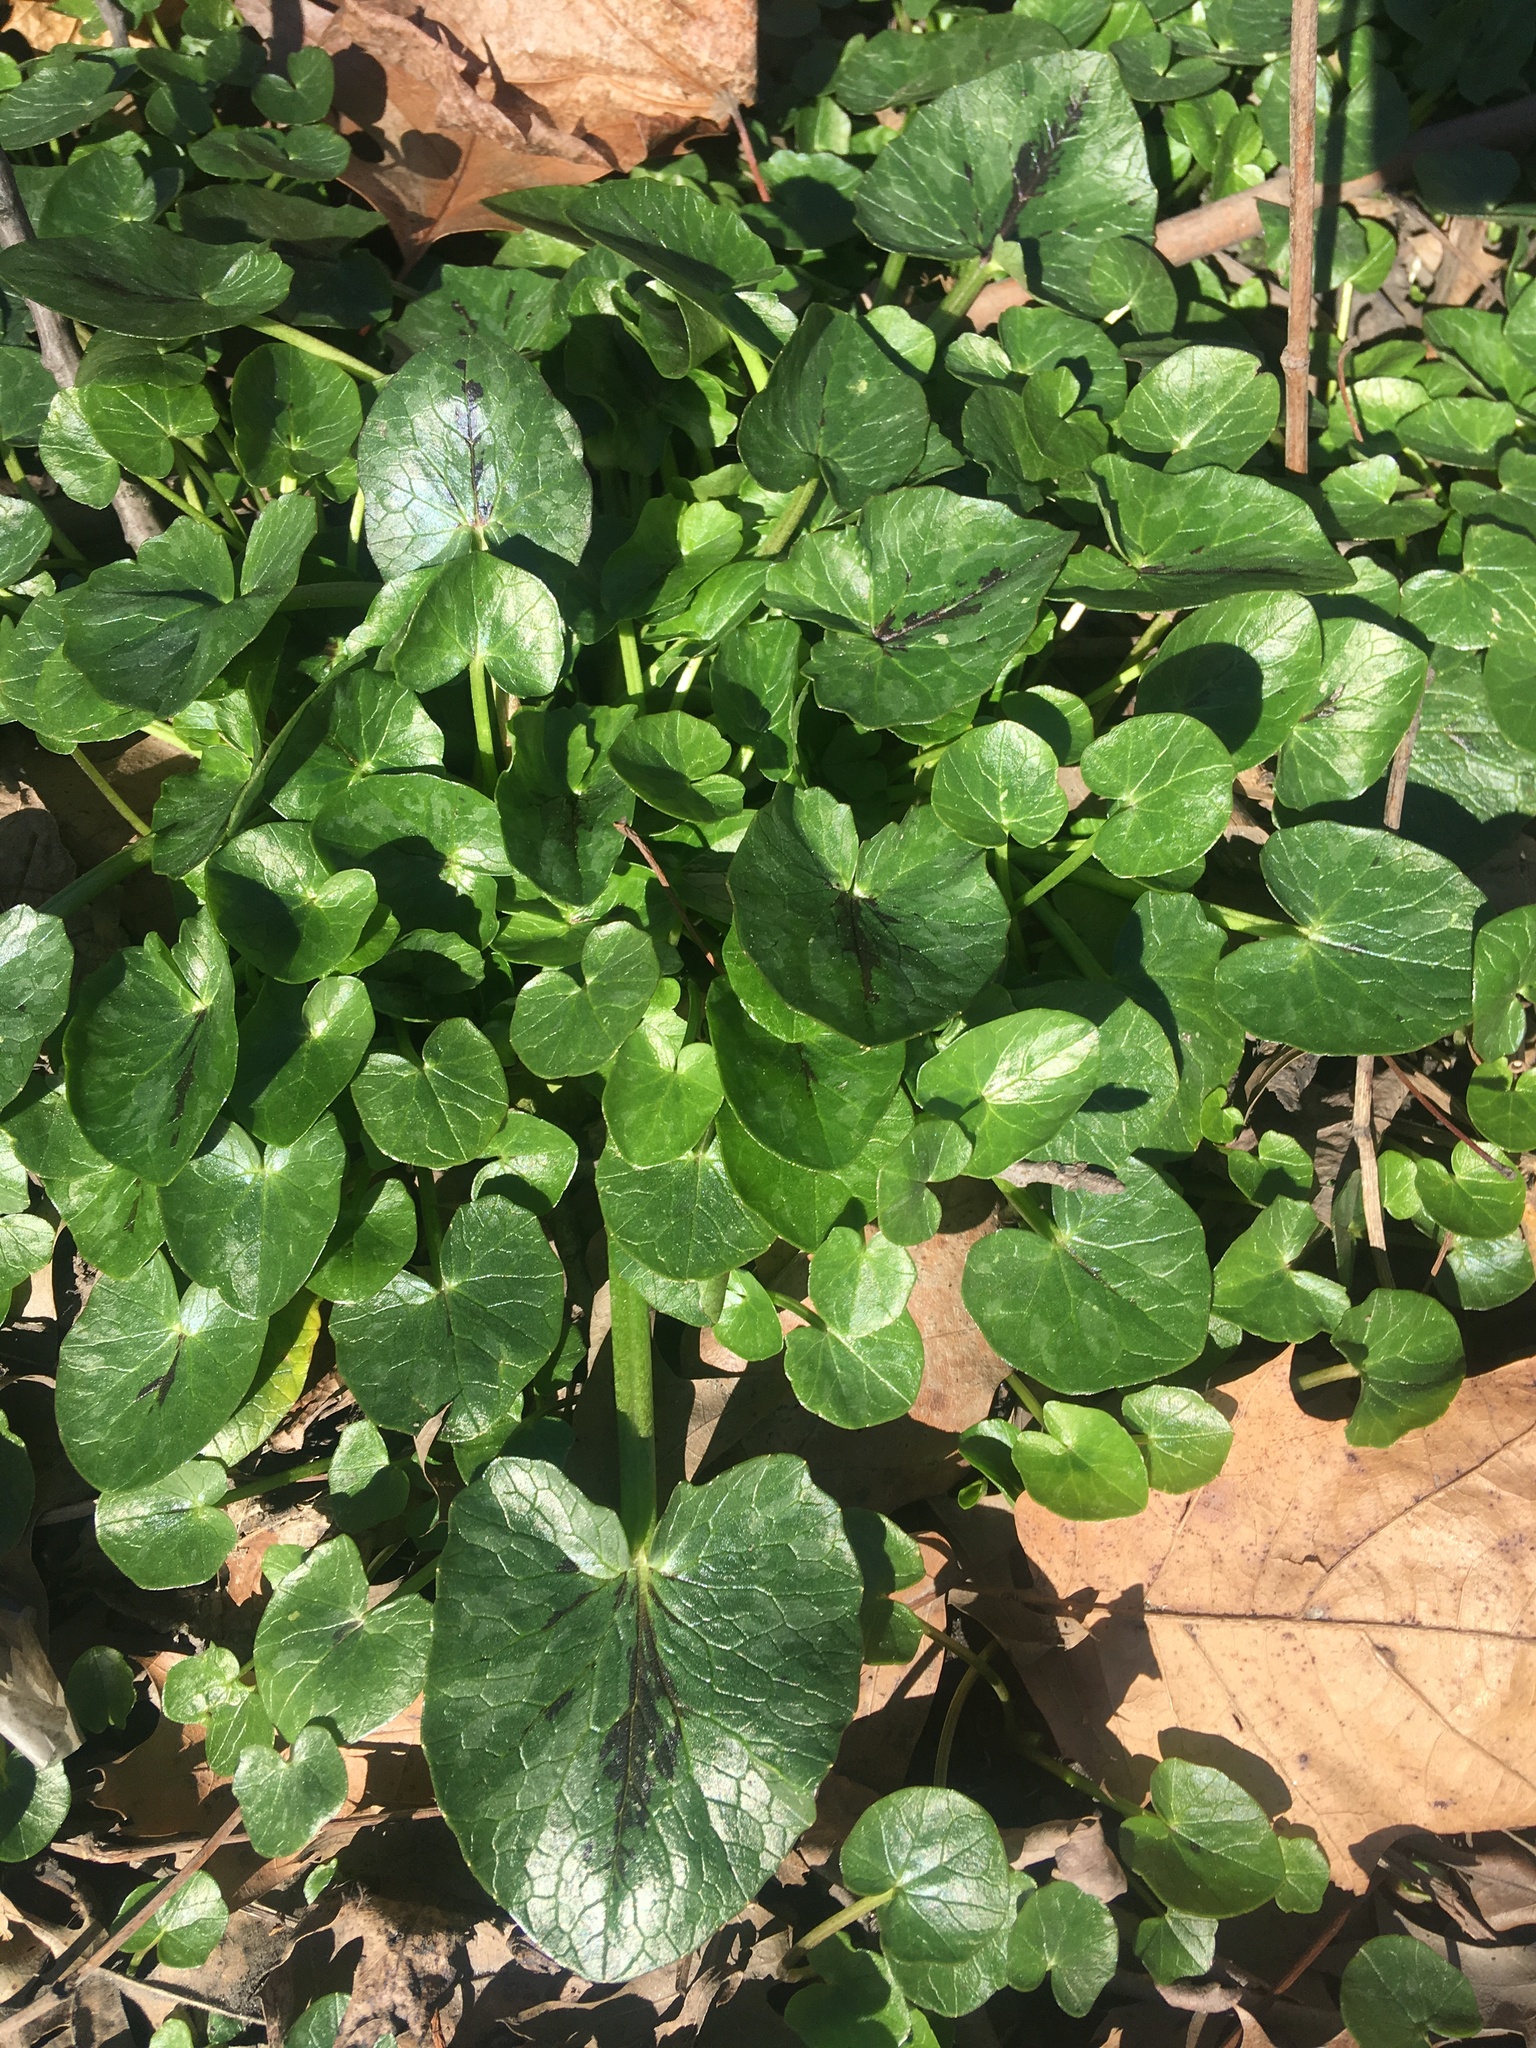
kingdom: Plantae
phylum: Tracheophyta
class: Magnoliopsida
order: Ranunculales
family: Ranunculaceae
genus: Ficaria
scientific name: Ficaria verna
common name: Lesser celandine
